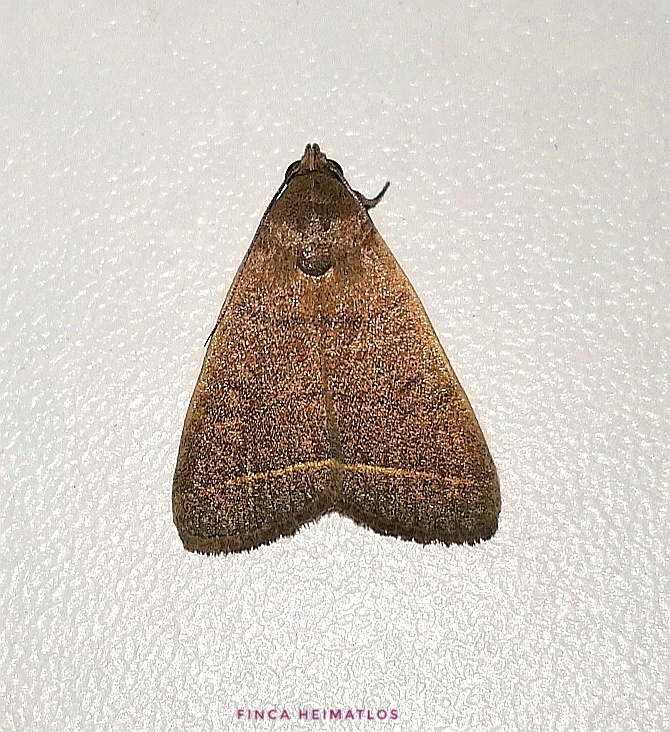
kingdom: Animalia
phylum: Arthropoda
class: Insecta
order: Lepidoptera
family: Erebidae
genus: Simplicia
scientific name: Simplicia cornicalis
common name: Tiki hut litter moth
